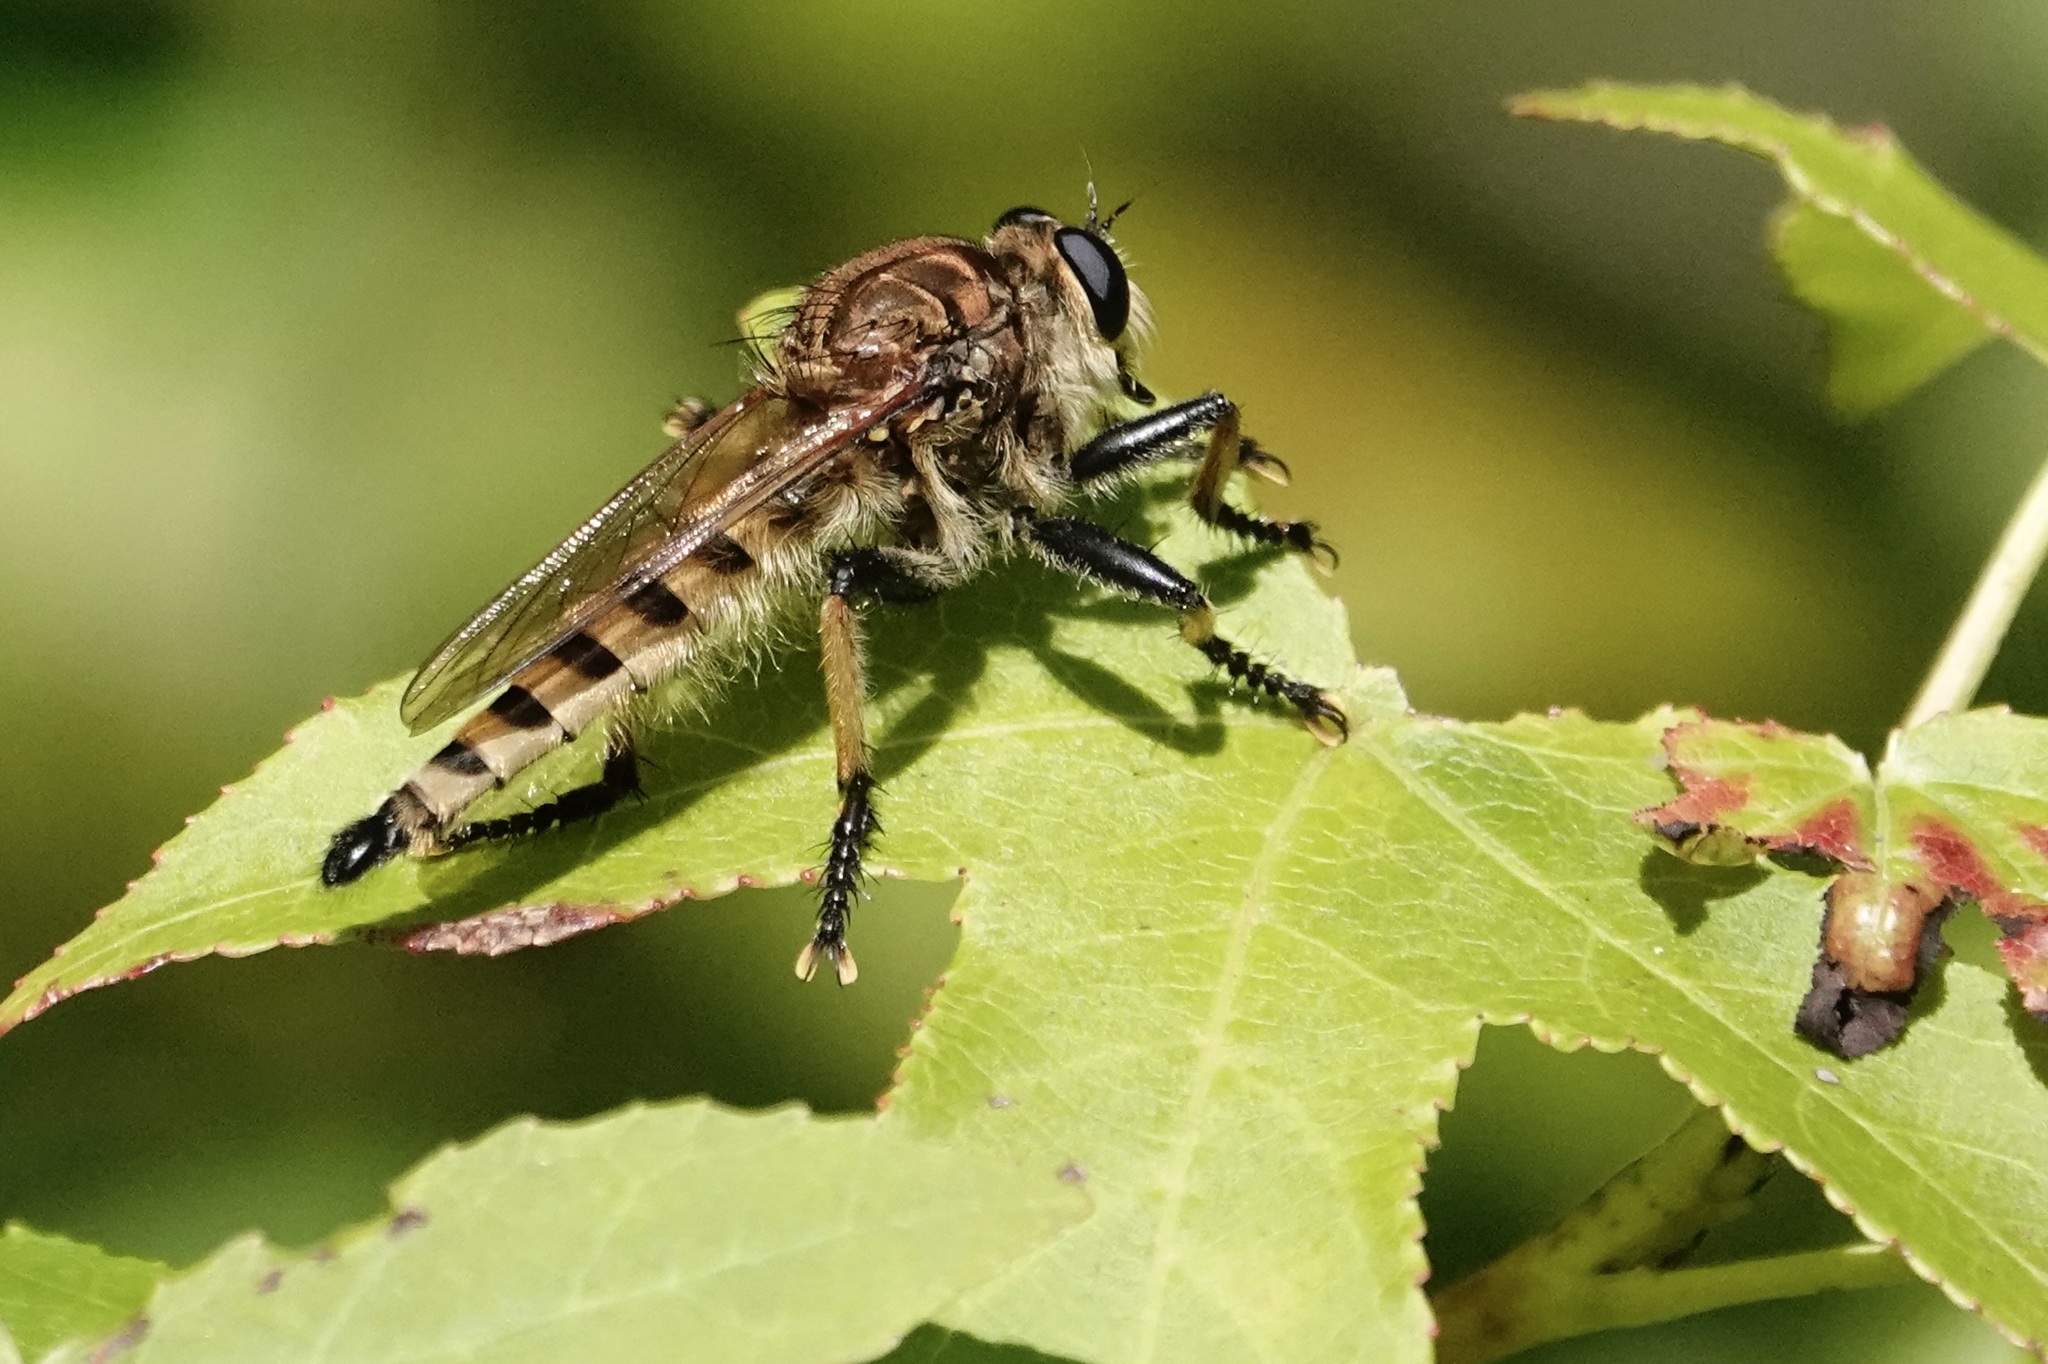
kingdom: Animalia
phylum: Arthropoda
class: Insecta
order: Diptera
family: Asilidae
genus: Promachus
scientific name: Promachus rufipes
